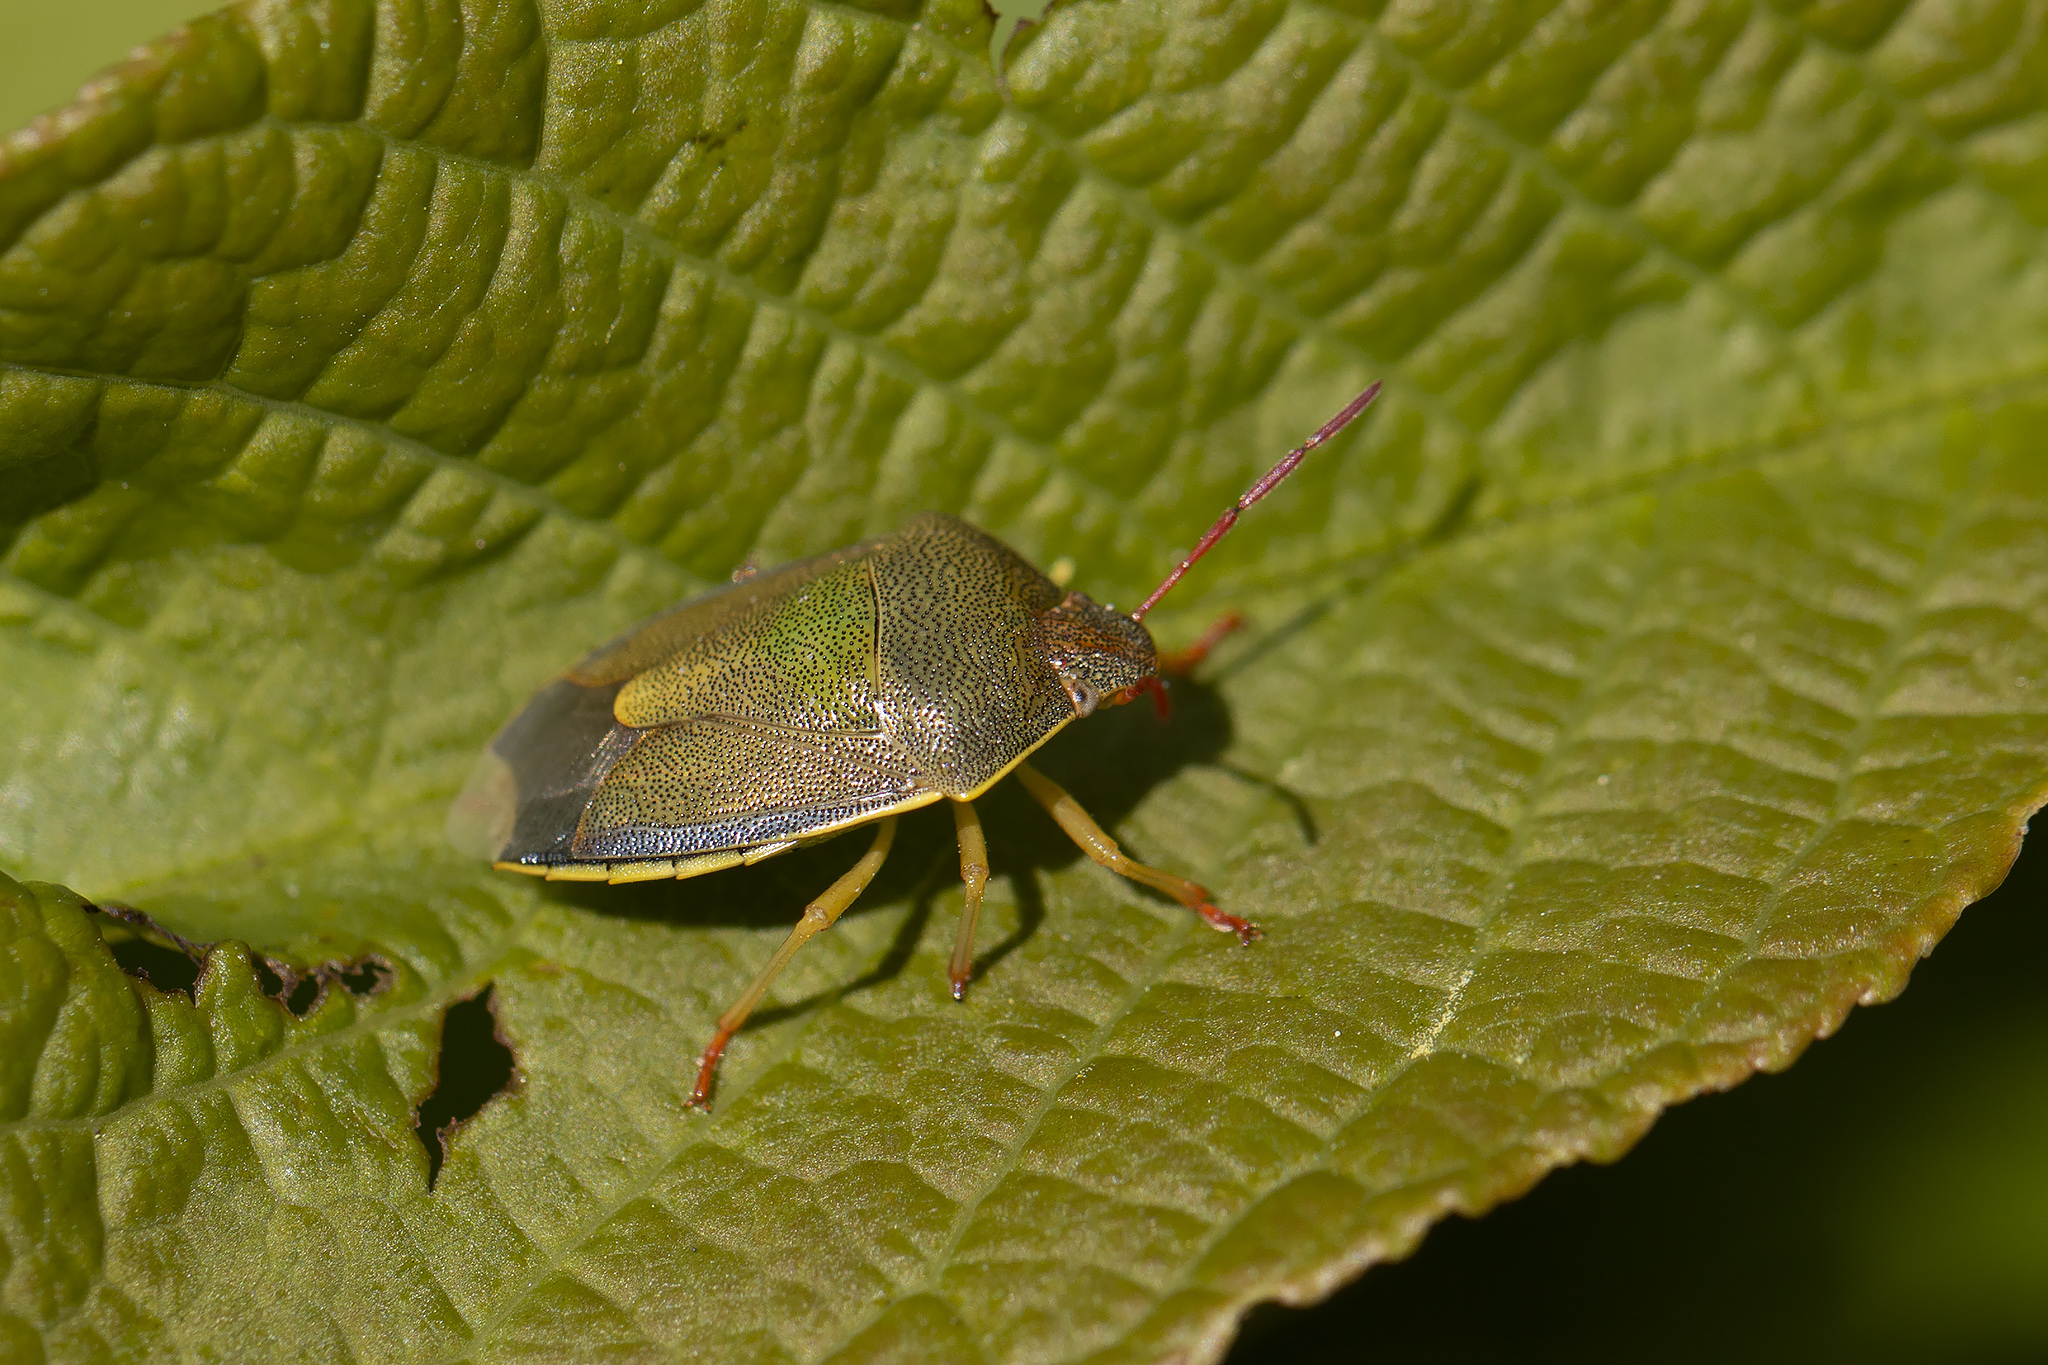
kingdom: Animalia
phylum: Arthropoda
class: Insecta
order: Hemiptera
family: Pentatomidae
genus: Piezodorus
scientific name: Piezodorus lituratus
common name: Stink bug
